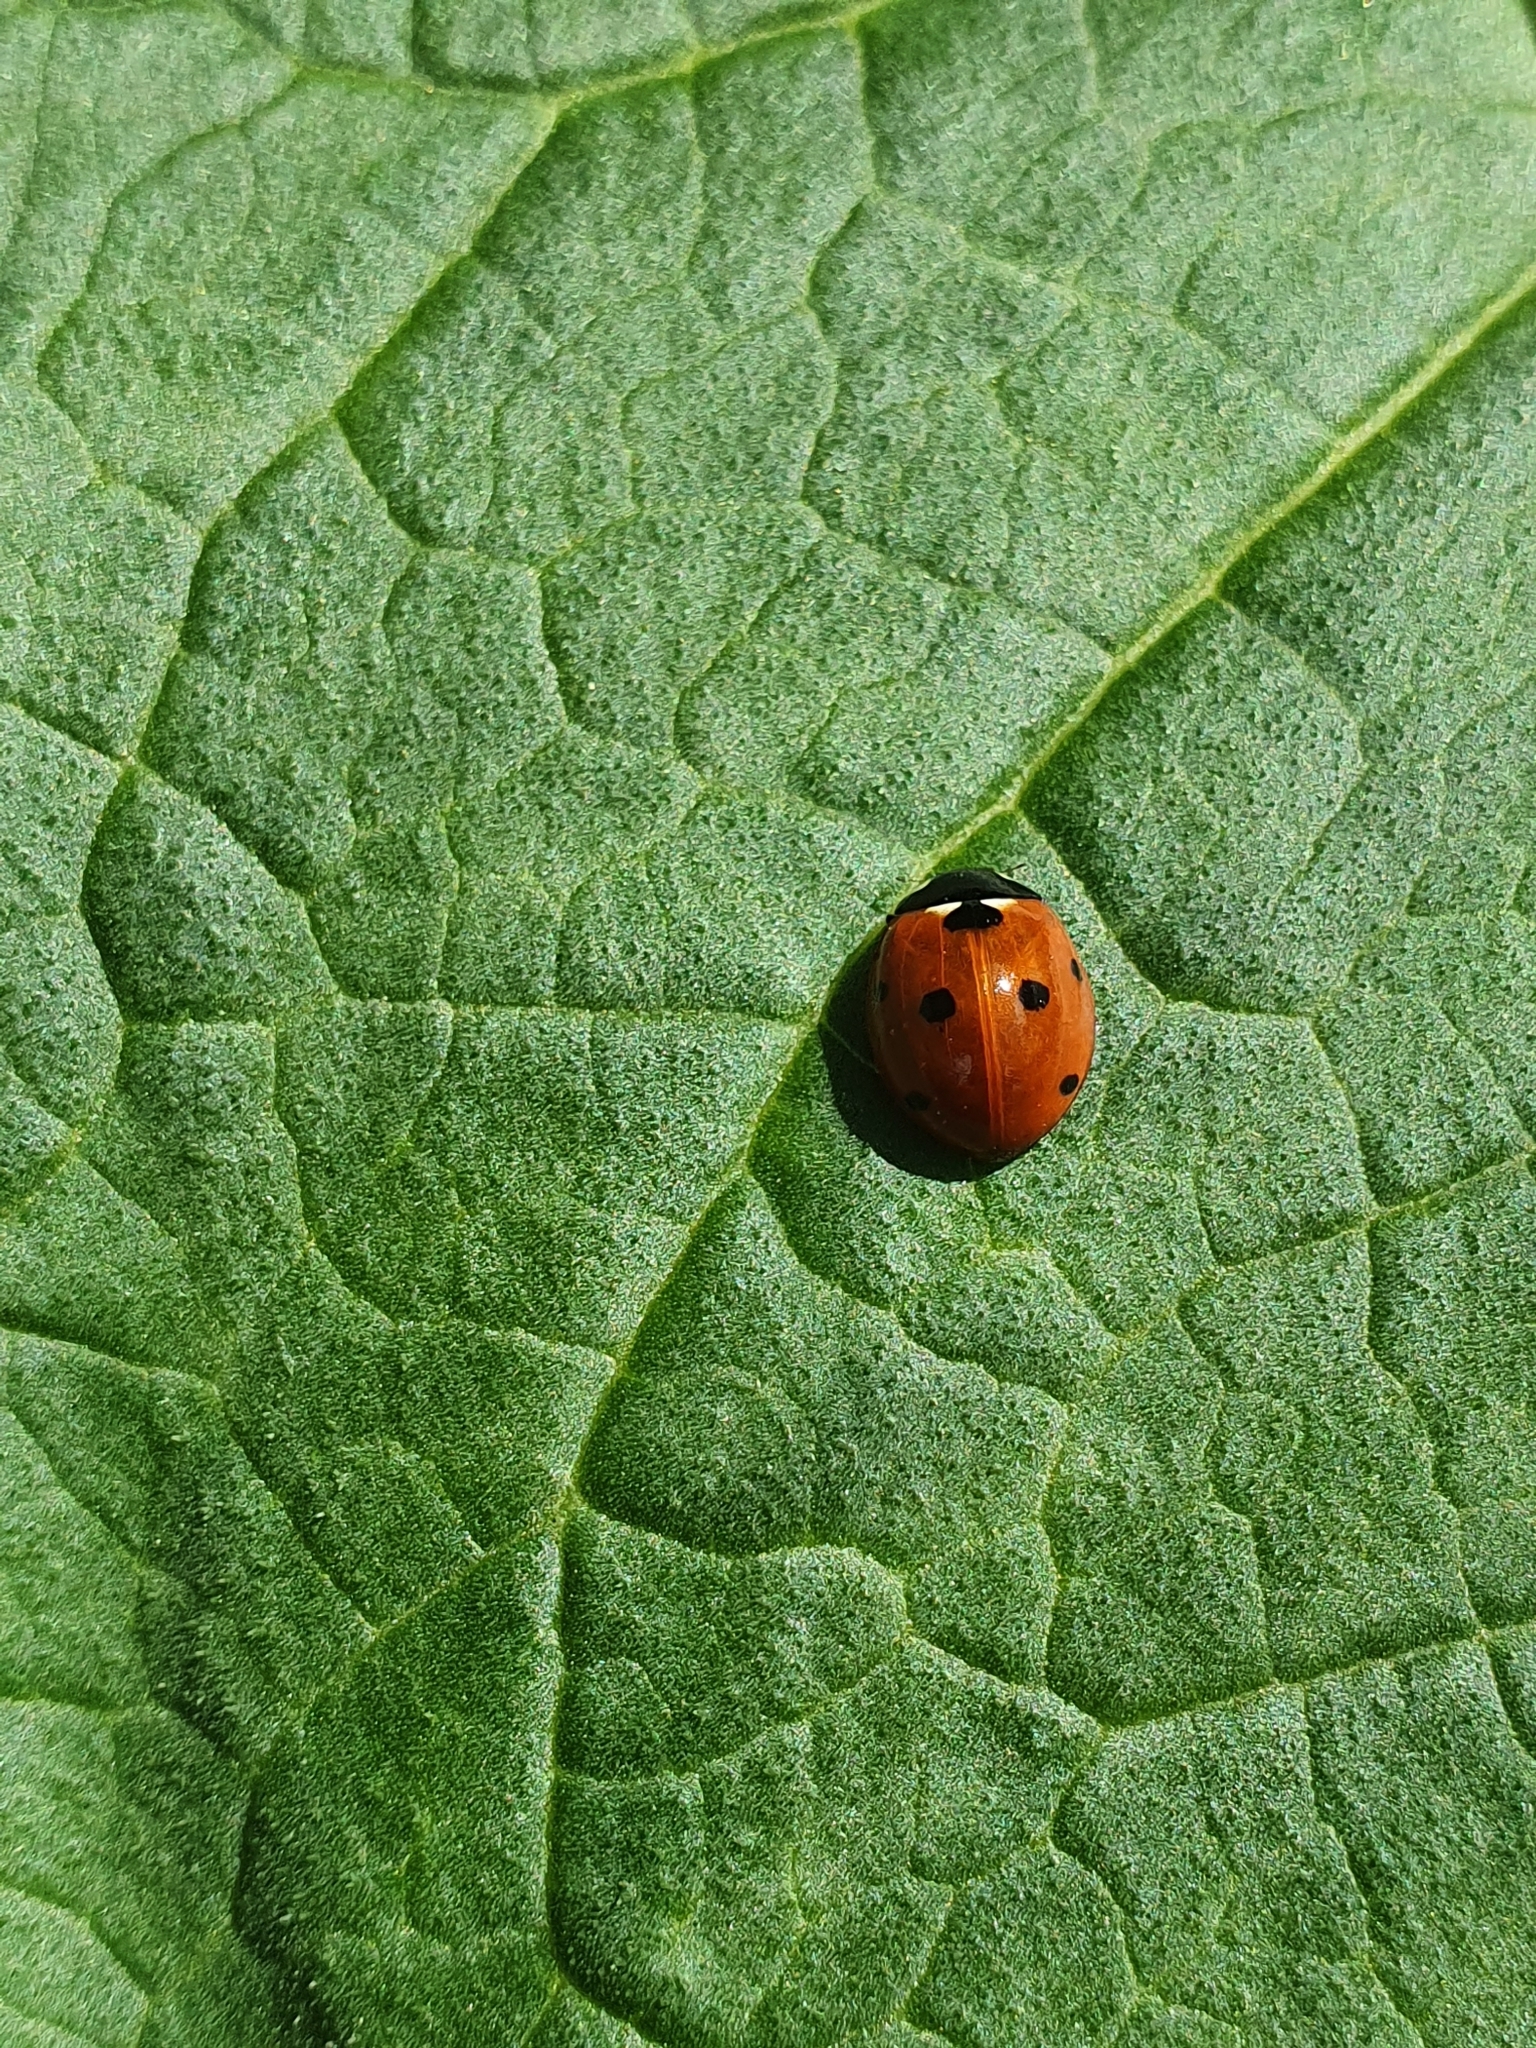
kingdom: Animalia
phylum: Arthropoda
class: Insecta
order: Coleoptera
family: Coccinellidae
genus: Coccinella
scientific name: Coccinella septempunctata
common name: Sevenspotted lady beetle
